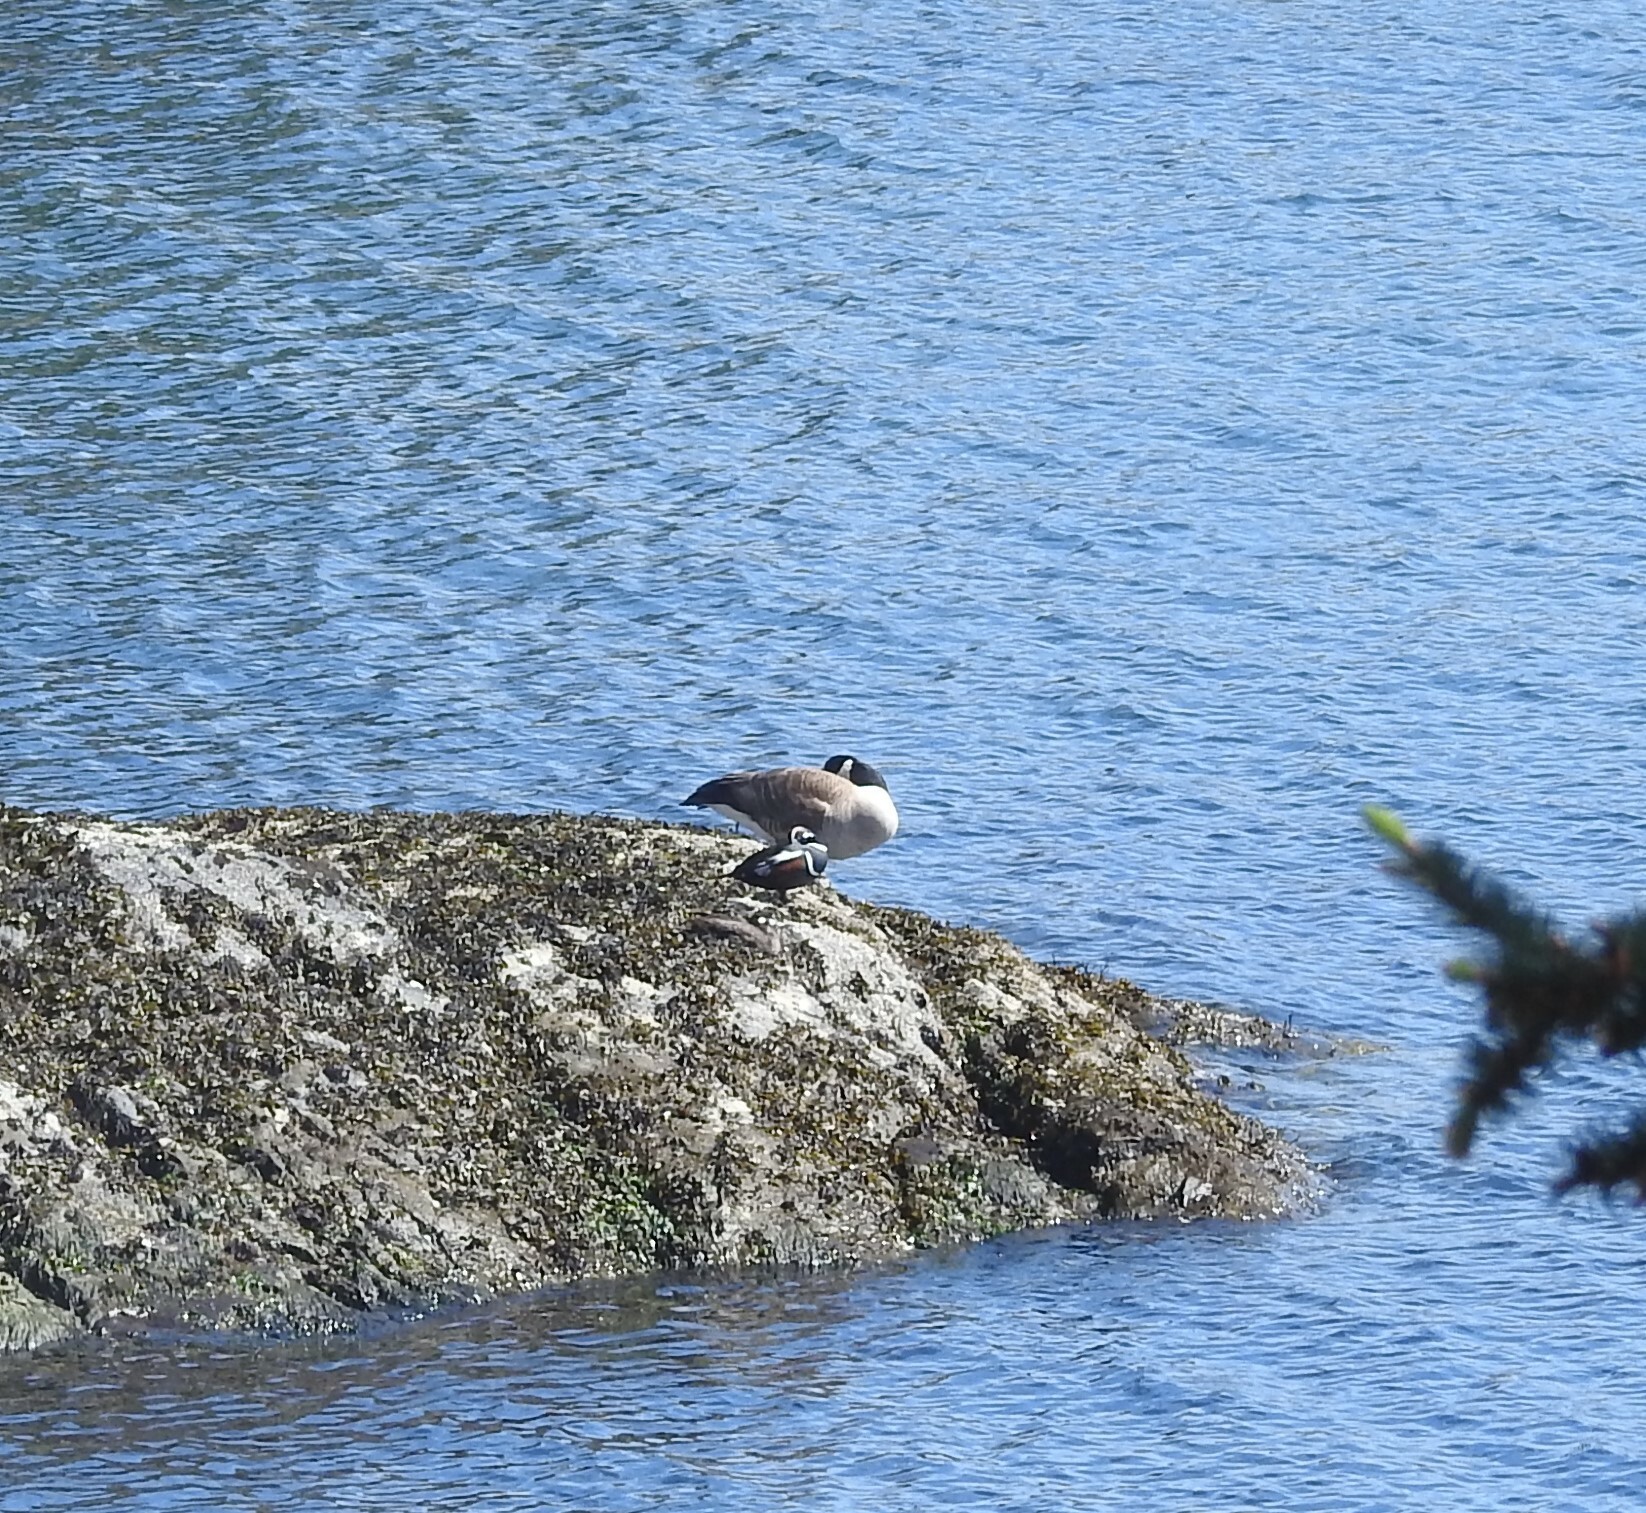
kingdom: Animalia
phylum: Chordata
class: Aves
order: Anseriformes
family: Anatidae
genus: Histrionicus
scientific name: Histrionicus histrionicus
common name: Harlequin duck
